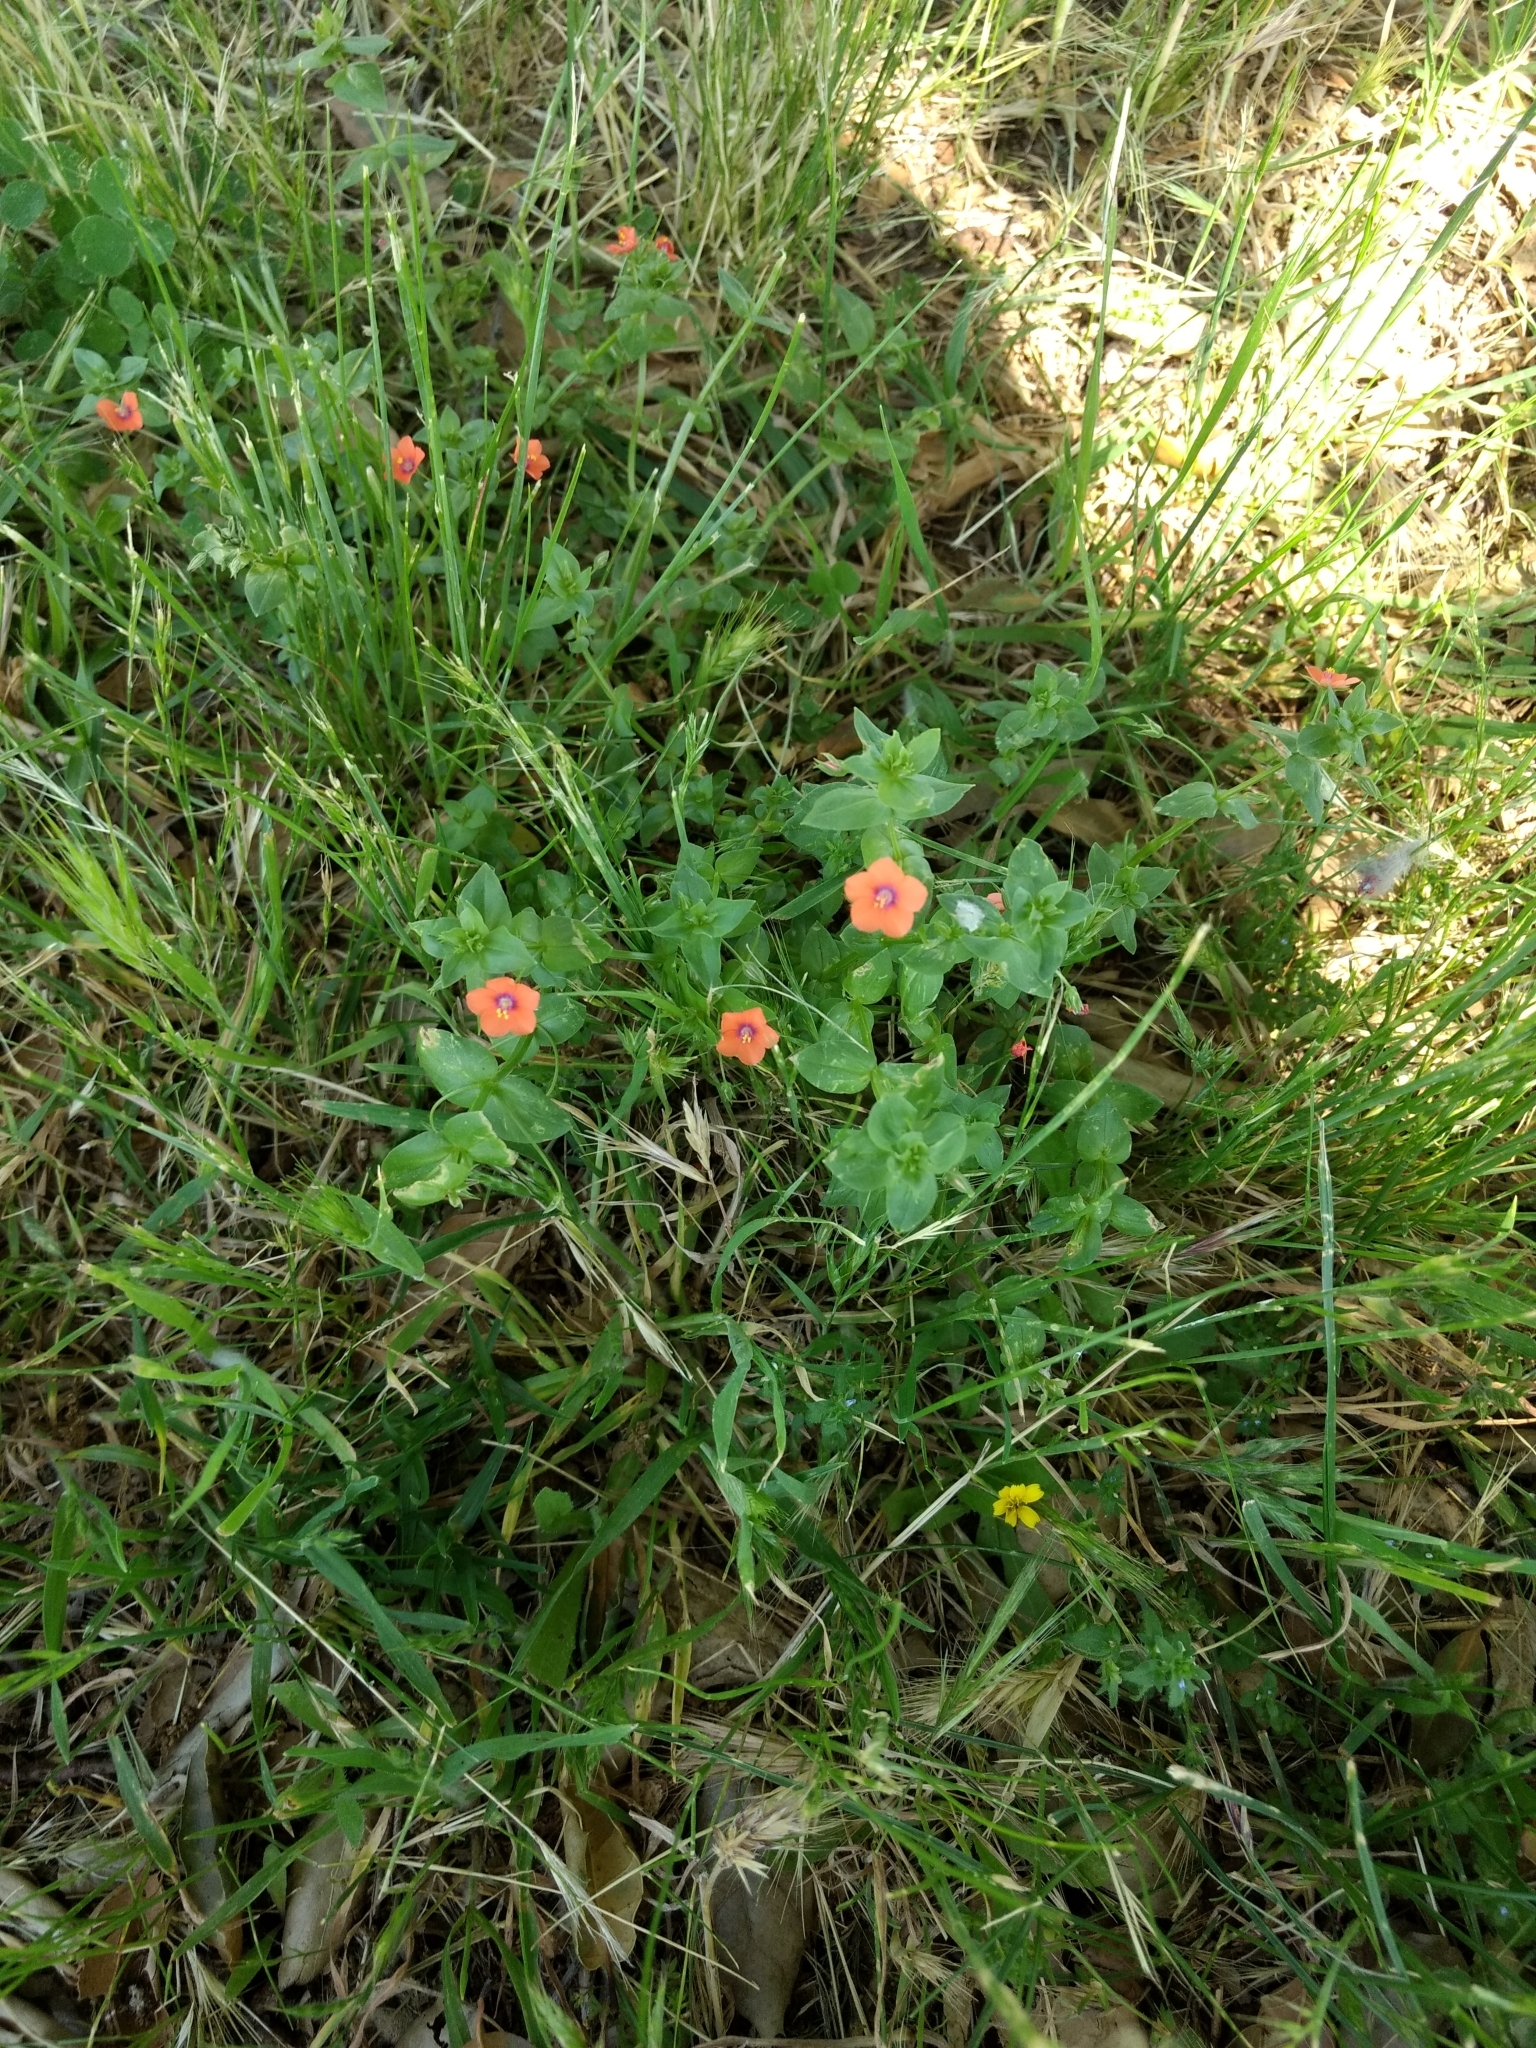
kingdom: Plantae
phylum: Tracheophyta
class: Magnoliopsida
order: Ericales
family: Primulaceae
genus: Lysimachia
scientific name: Lysimachia arvensis
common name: Scarlet pimpernel
